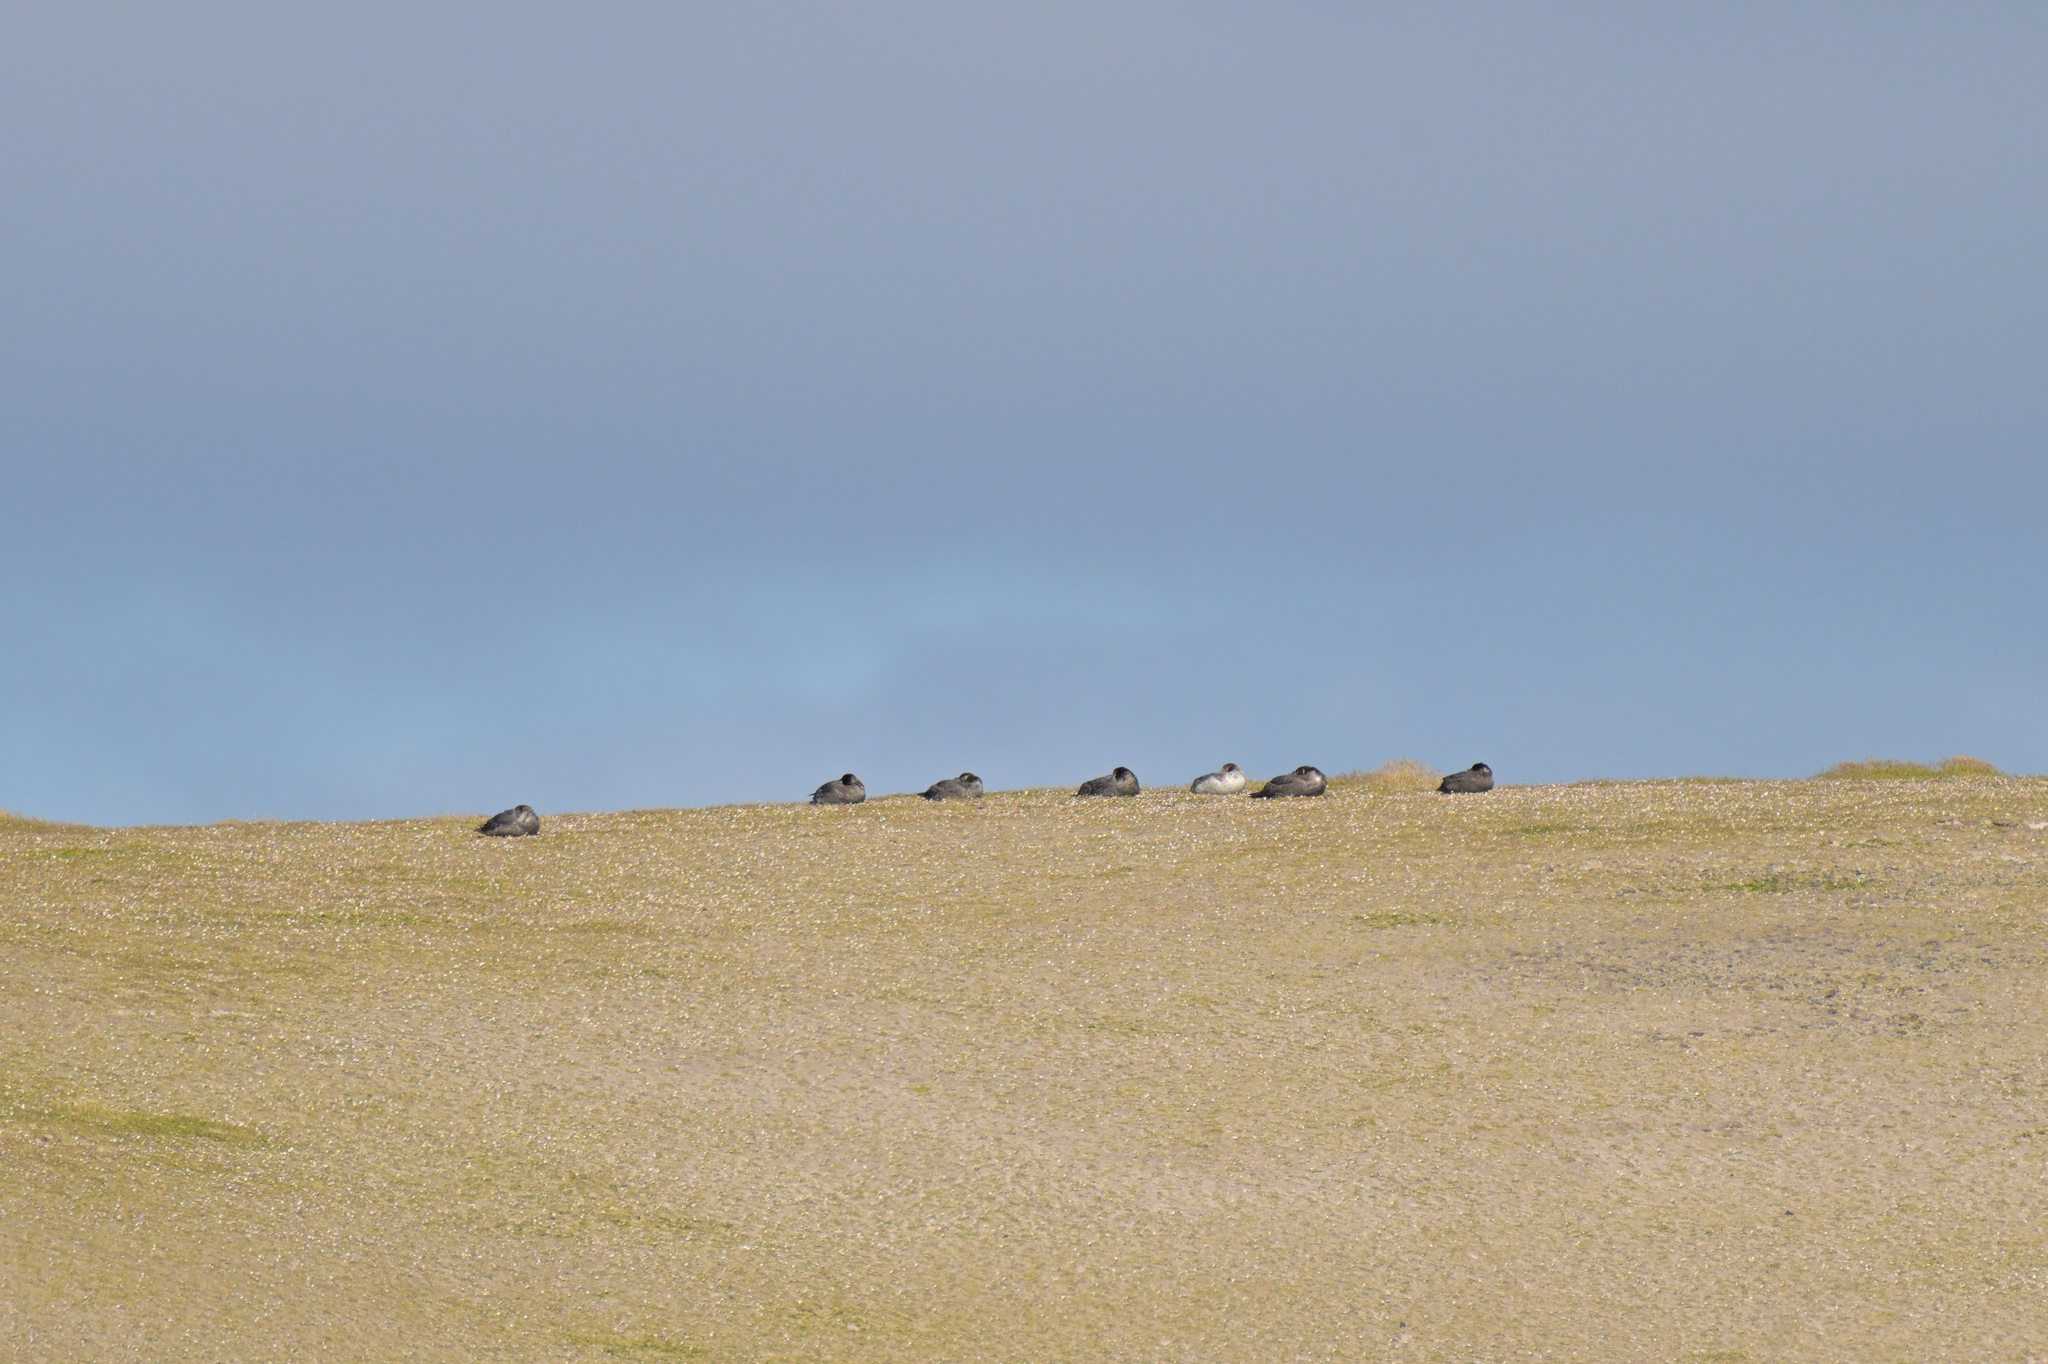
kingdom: Animalia
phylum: Chordata
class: Aves
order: Procellariiformes
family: Procellariidae
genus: Macronectes
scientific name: Macronectes halli
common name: Northern giant petrel
